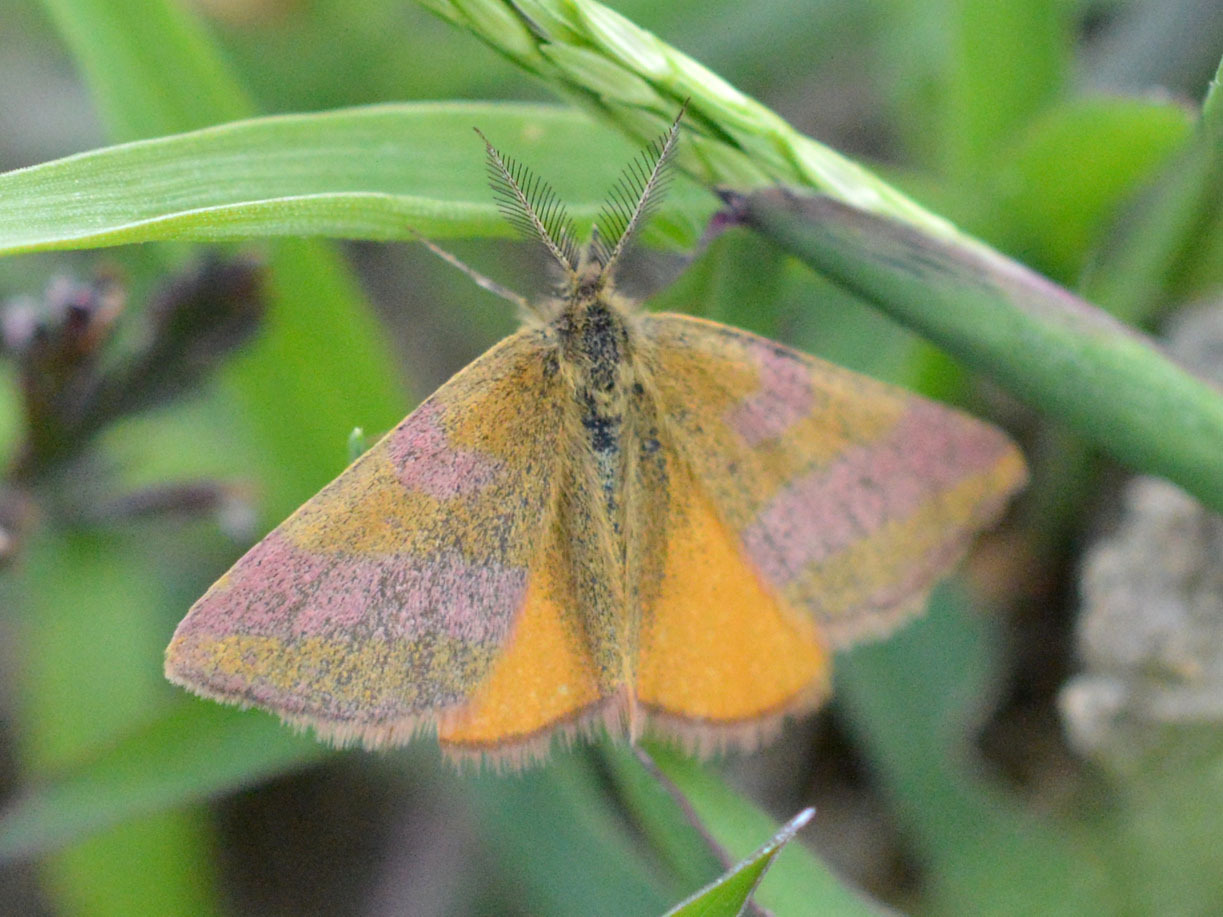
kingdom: Animalia
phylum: Arthropoda
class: Insecta
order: Lepidoptera
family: Geometridae
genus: Lythria
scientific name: Lythria cruentaria
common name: Purple-barred yellow
